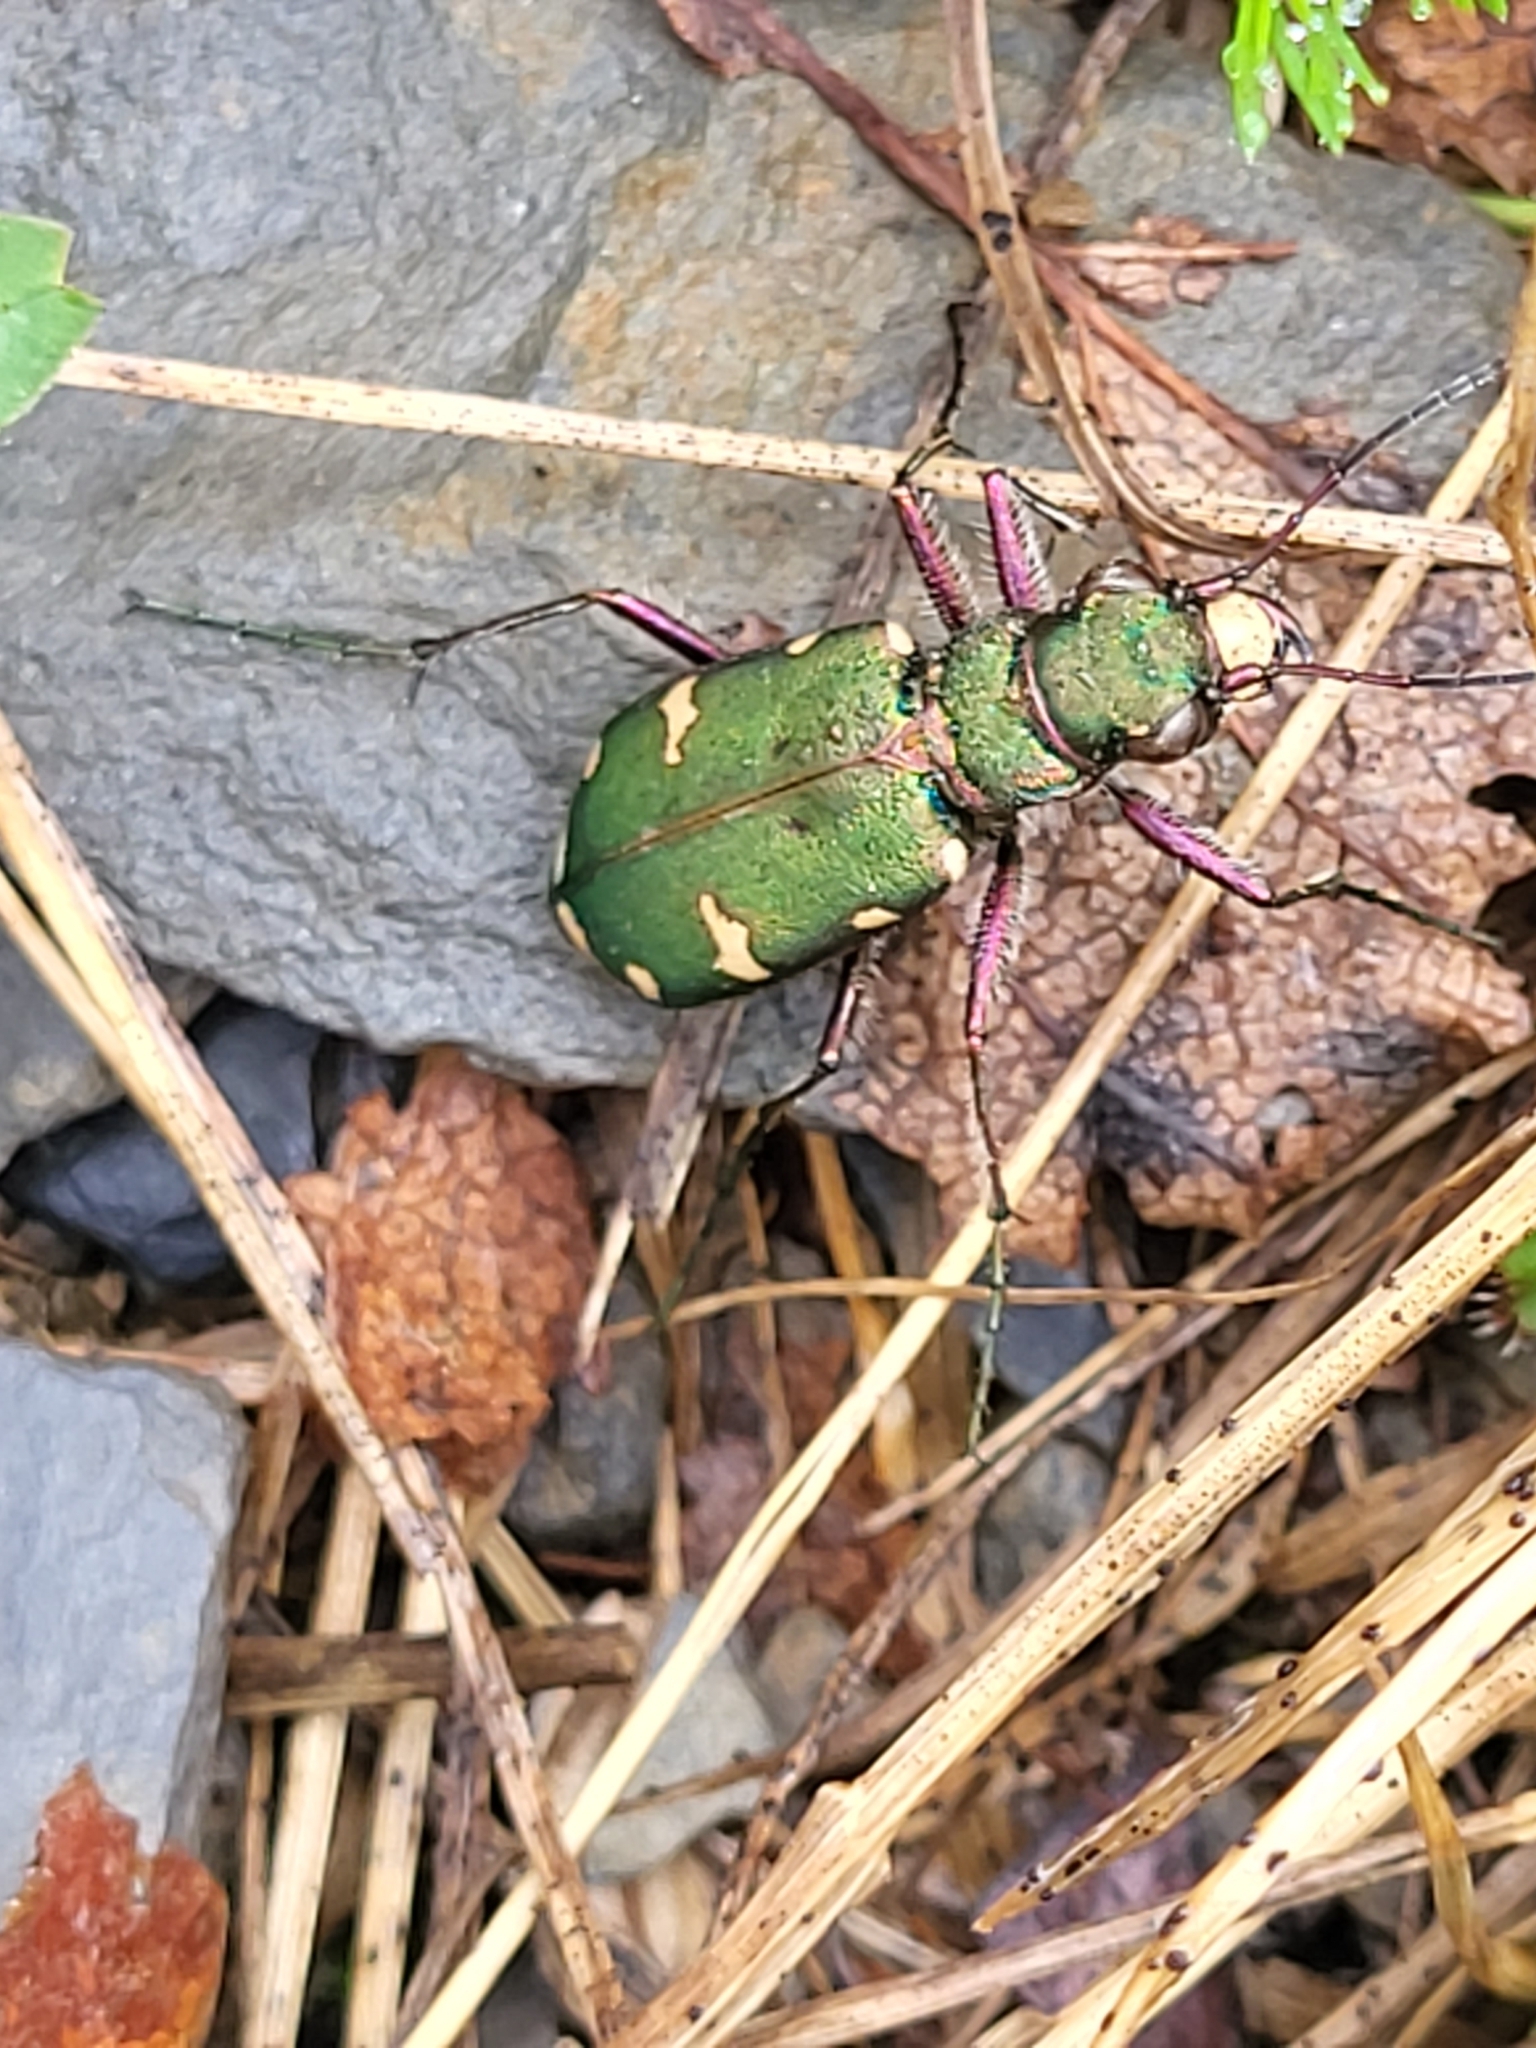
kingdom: Animalia
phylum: Arthropoda
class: Insecta
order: Coleoptera
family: Carabidae
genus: Cicindela
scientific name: Cicindela desertorum
